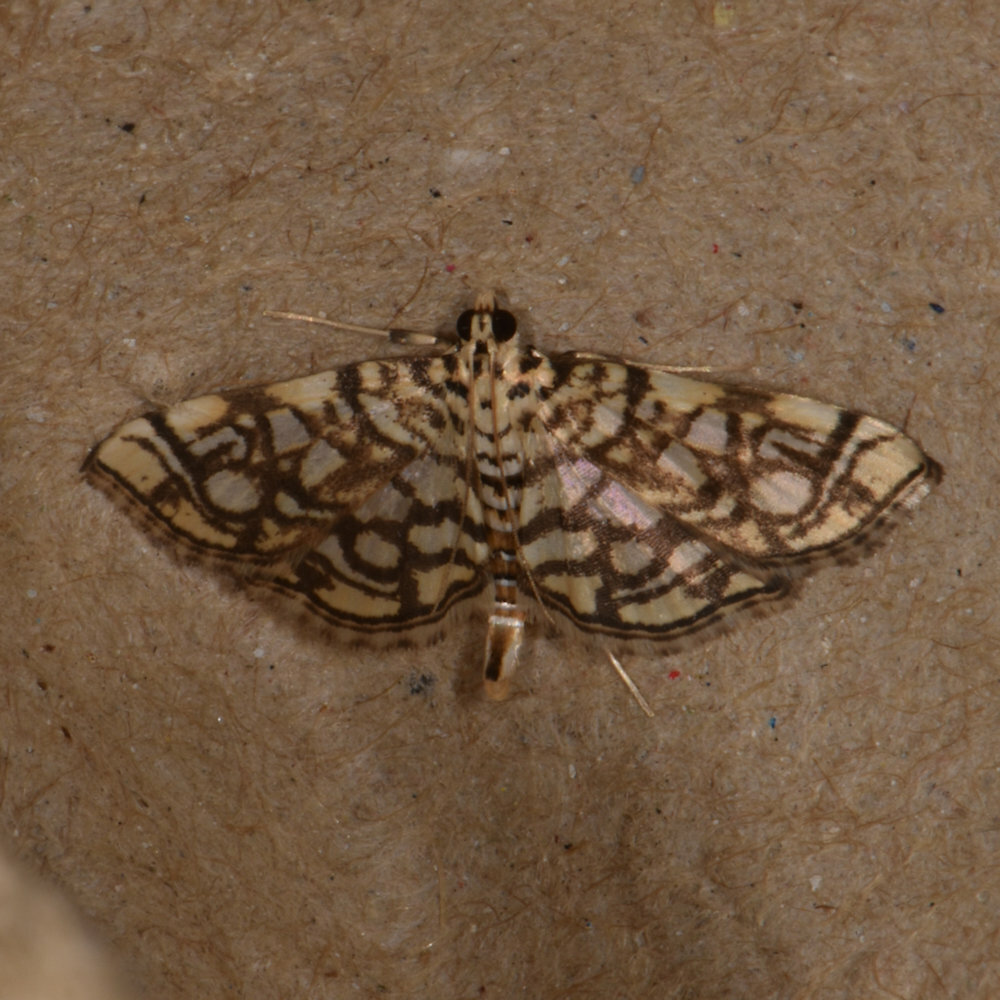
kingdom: Animalia
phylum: Arthropoda
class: Insecta
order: Lepidoptera
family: Crambidae
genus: Lygropia
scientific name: Lygropia rivulalis
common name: Bog lygropia moth
